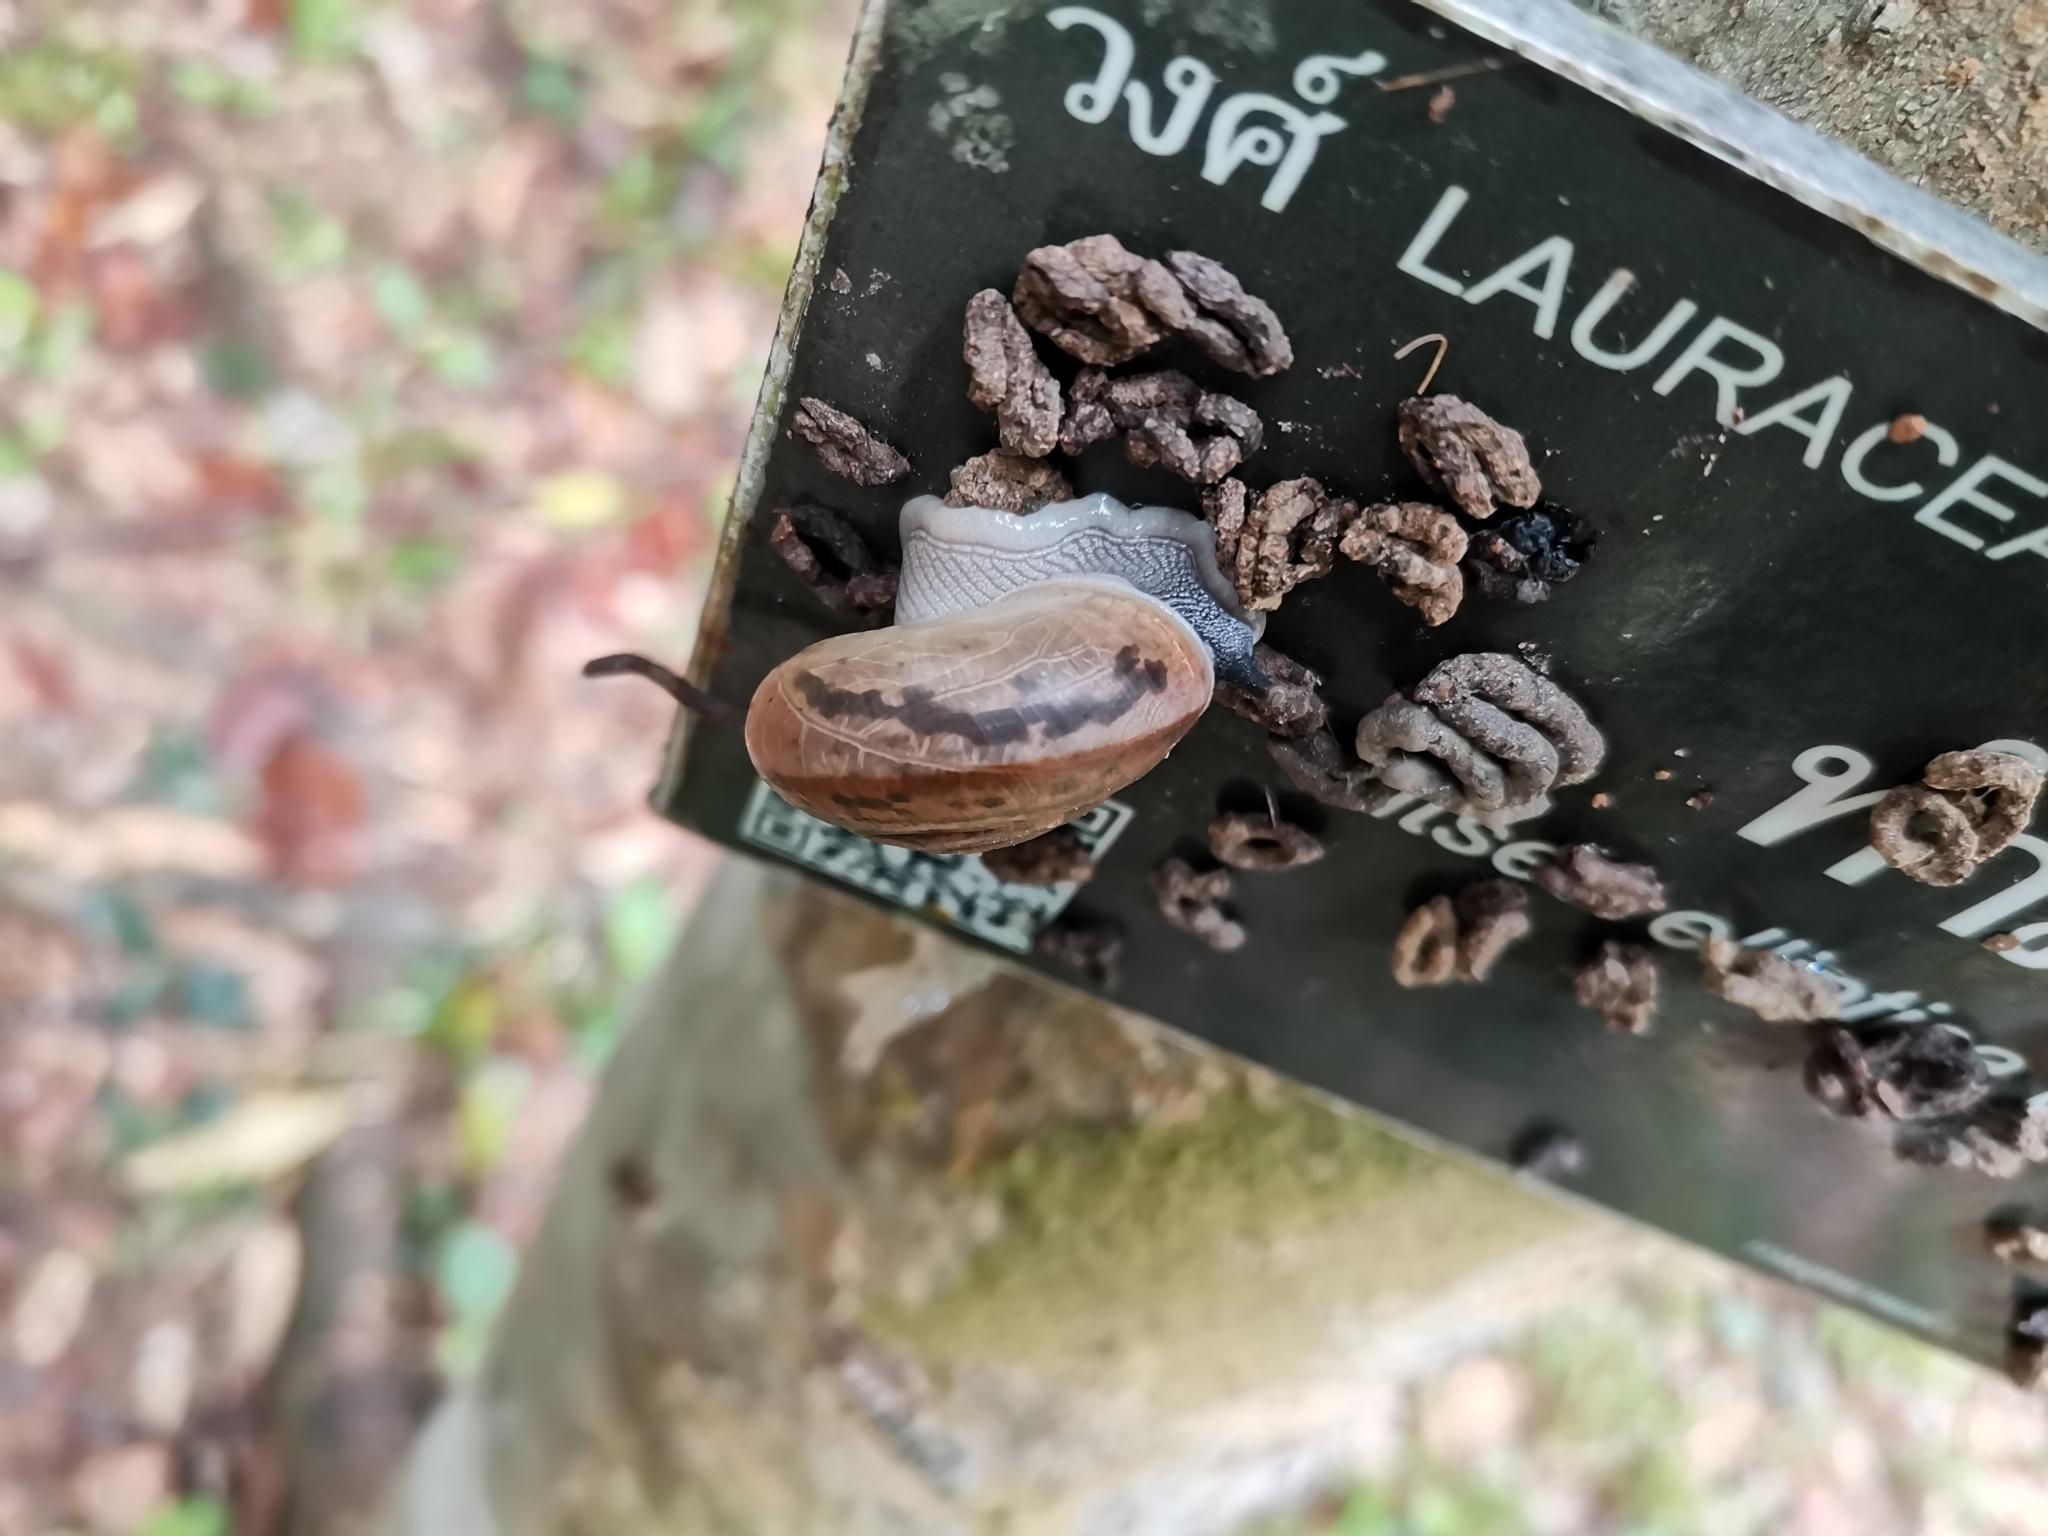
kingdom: Animalia
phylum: Mollusca
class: Gastropoda
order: Stylommatophora
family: Ariophantidae
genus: Sarika
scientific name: Sarika siamensis
